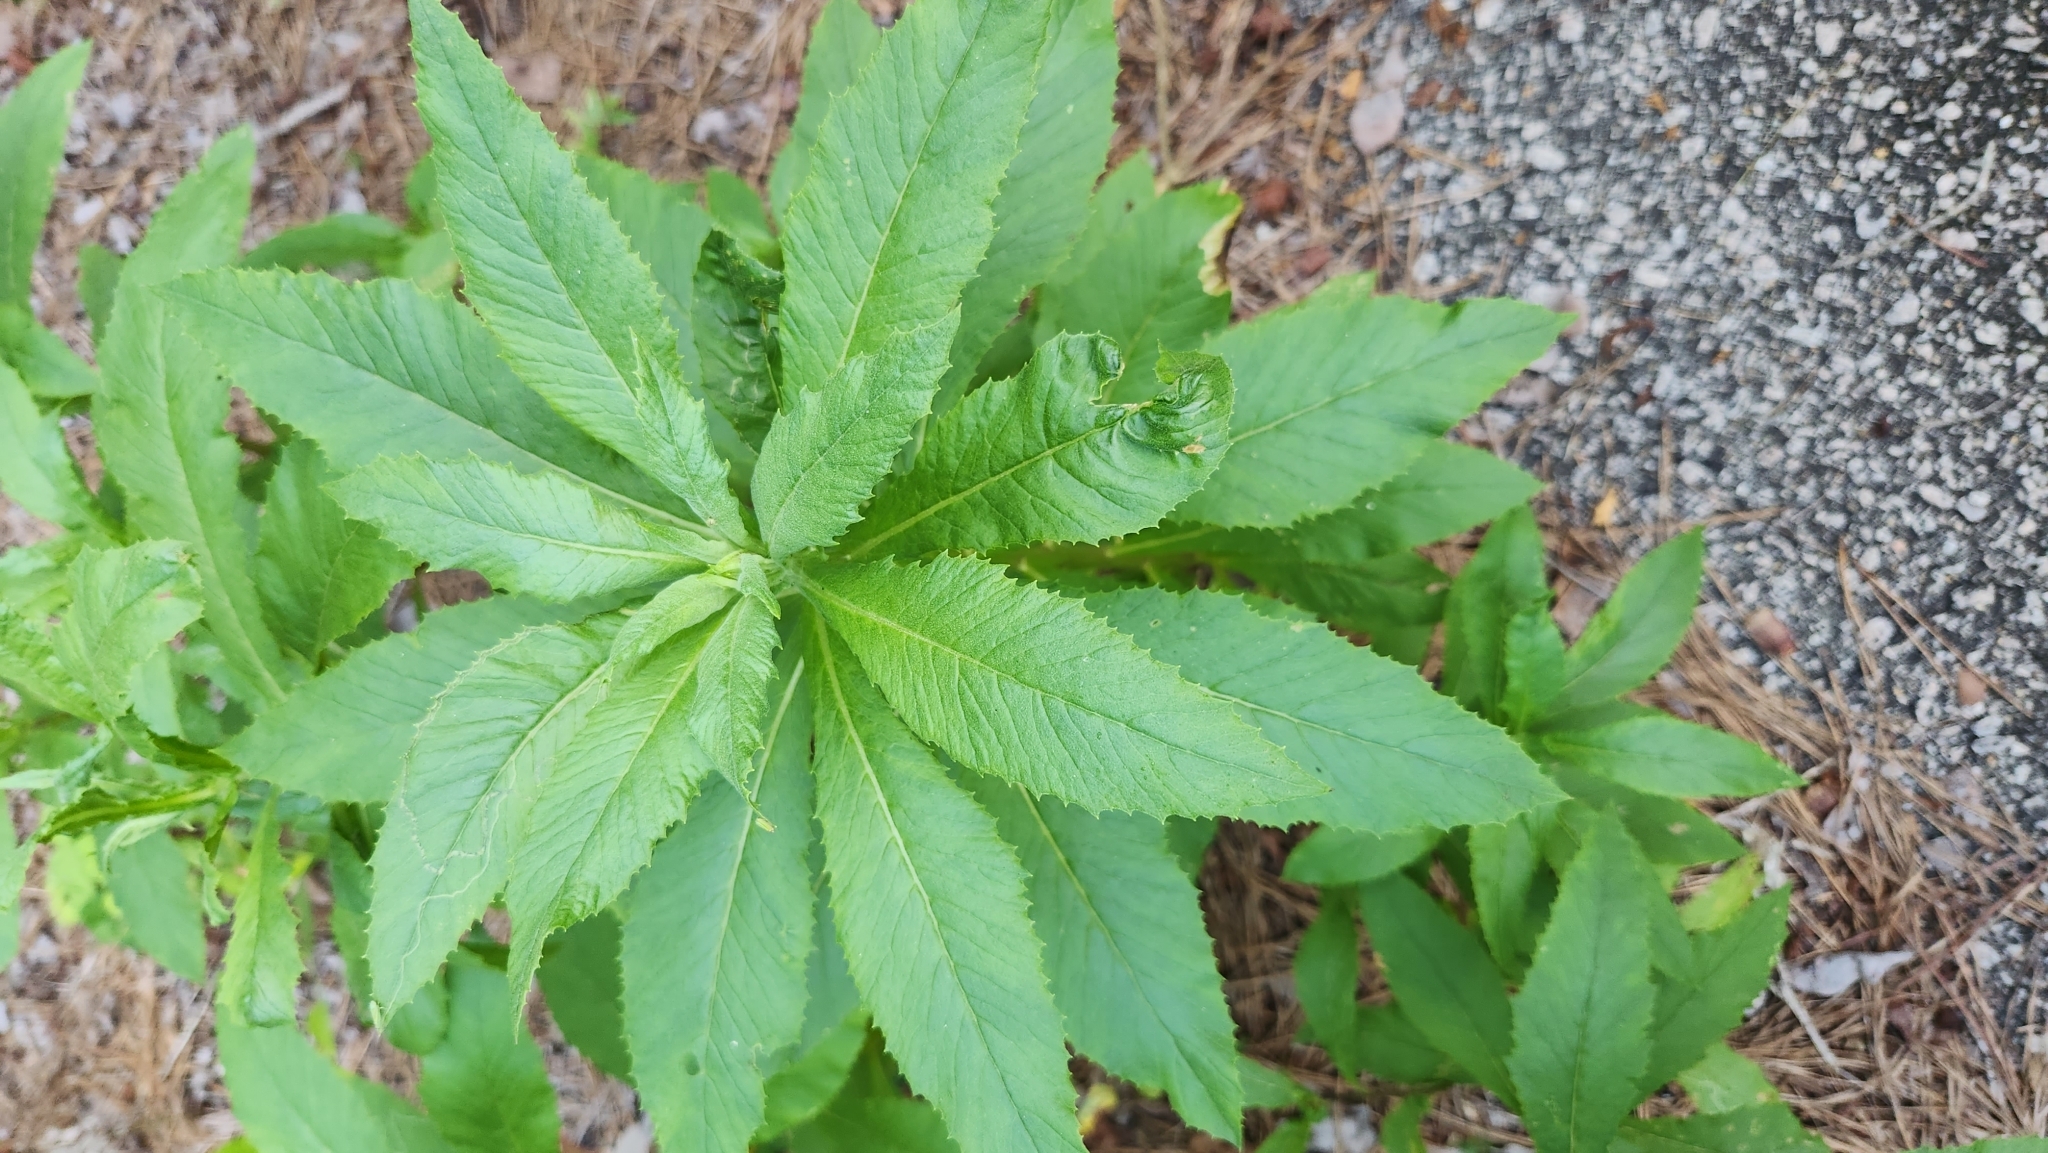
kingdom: Plantae
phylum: Tracheophyta
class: Magnoliopsida
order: Asterales
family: Asteraceae
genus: Erechtites
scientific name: Erechtites hieraciifolius
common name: American burnweed
